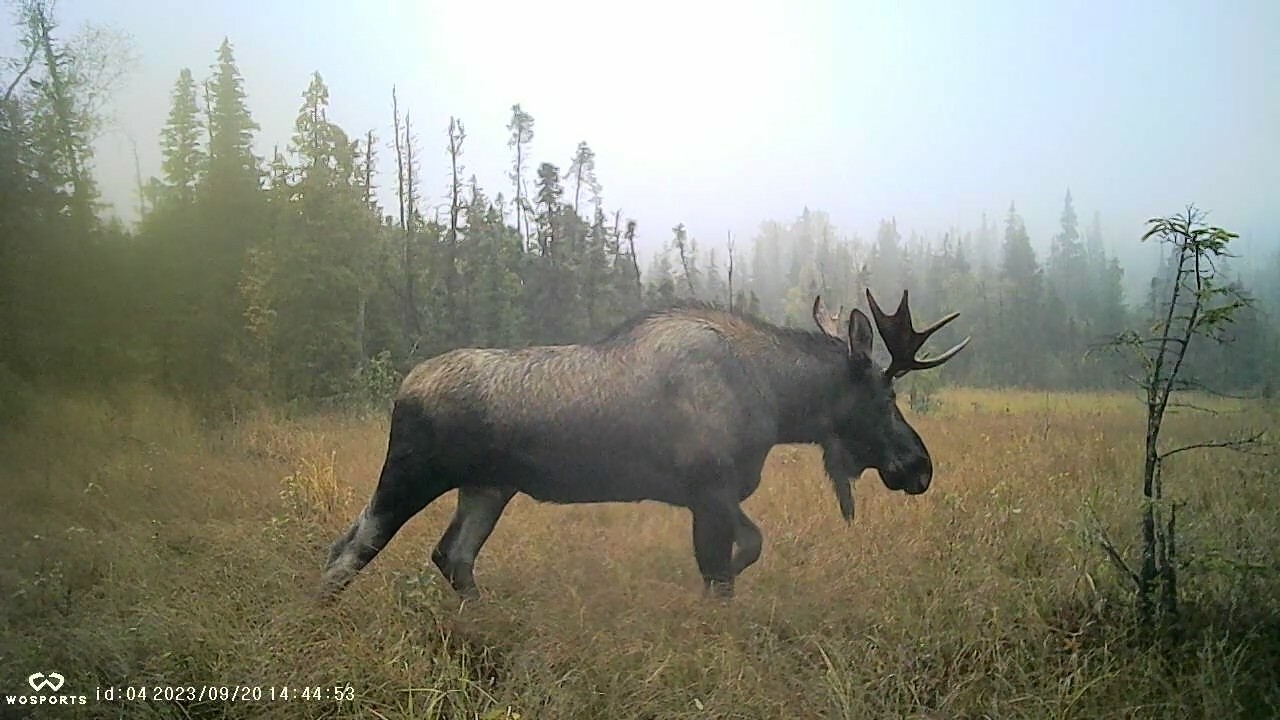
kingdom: Animalia
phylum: Chordata
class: Mammalia
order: Artiodactyla
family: Cervidae
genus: Alces
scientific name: Alces alces
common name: Moose
